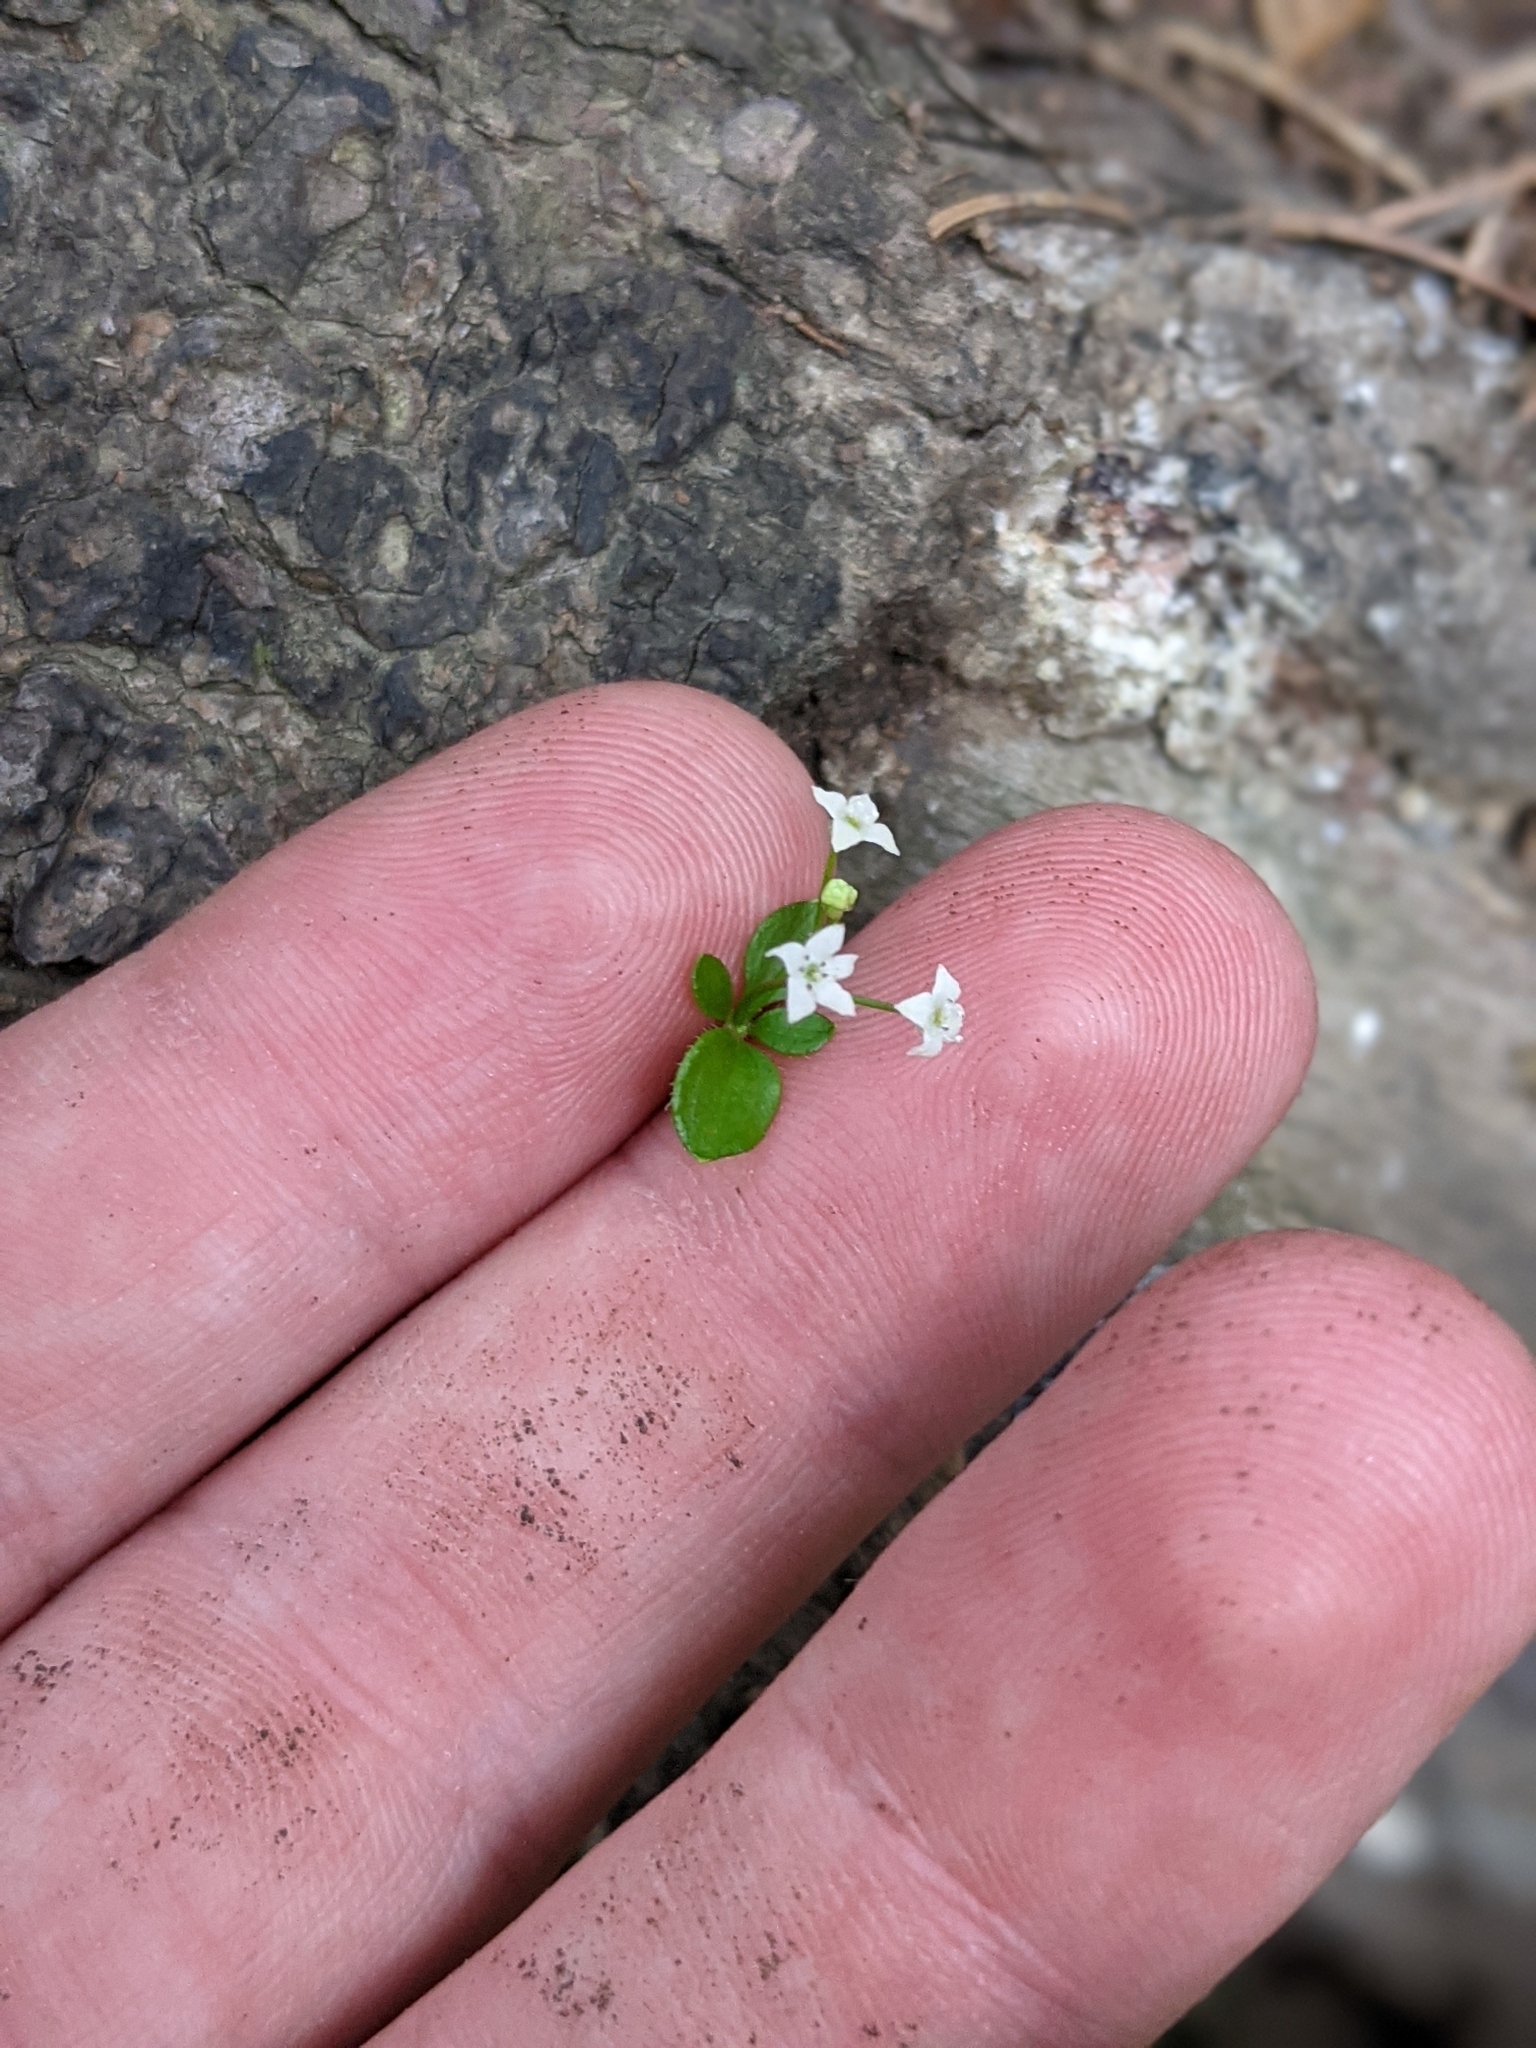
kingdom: Plantae
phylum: Tracheophyta
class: Magnoliopsida
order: Gentianales
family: Rubiaceae
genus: Galium
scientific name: Galium rotundifolium
